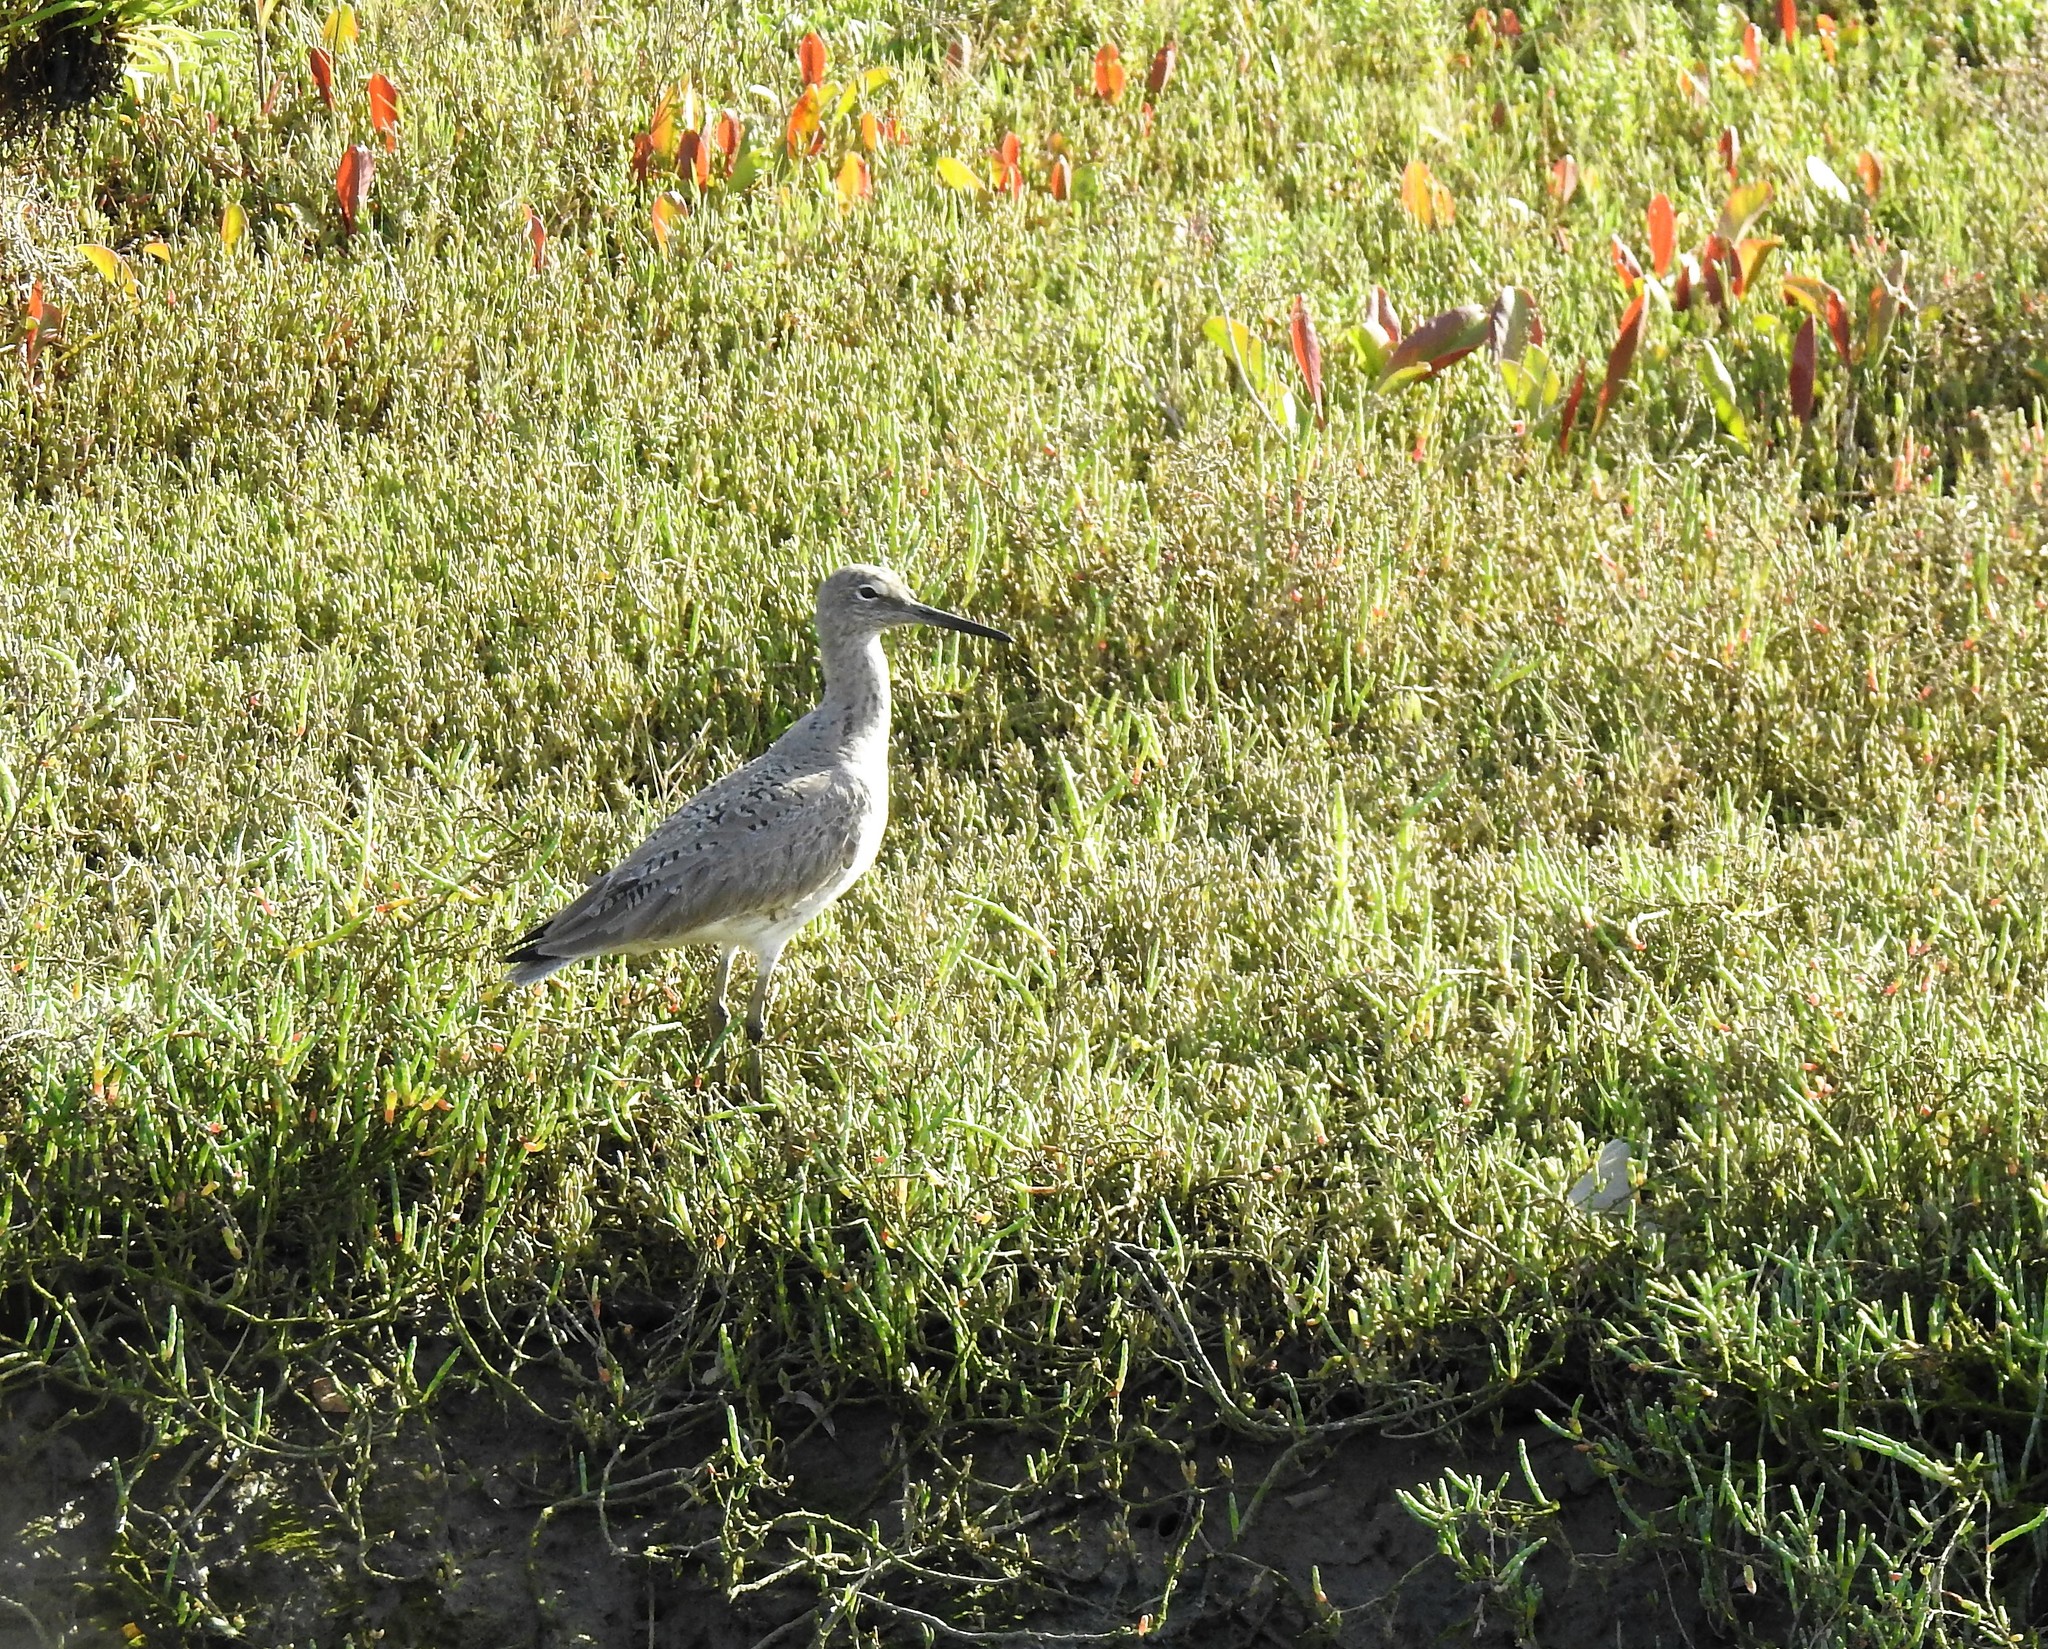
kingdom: Animalia
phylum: Chordata
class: Aves
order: Charadriiformes
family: Scolopacidae
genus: Tringa
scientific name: Tringa semipalmata
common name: Willet
